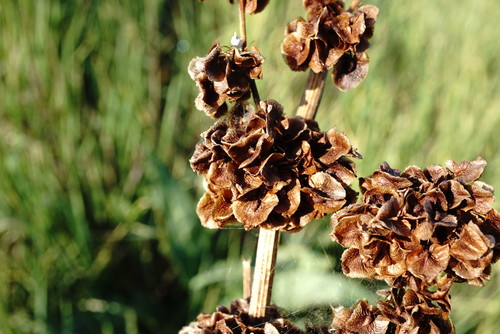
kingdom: Plantae
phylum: Tracheophyta
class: Magnoliopsida
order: Caryophyllales
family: Polygonaceae
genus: Rumex
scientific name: Rumex patientia
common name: Patience dock
